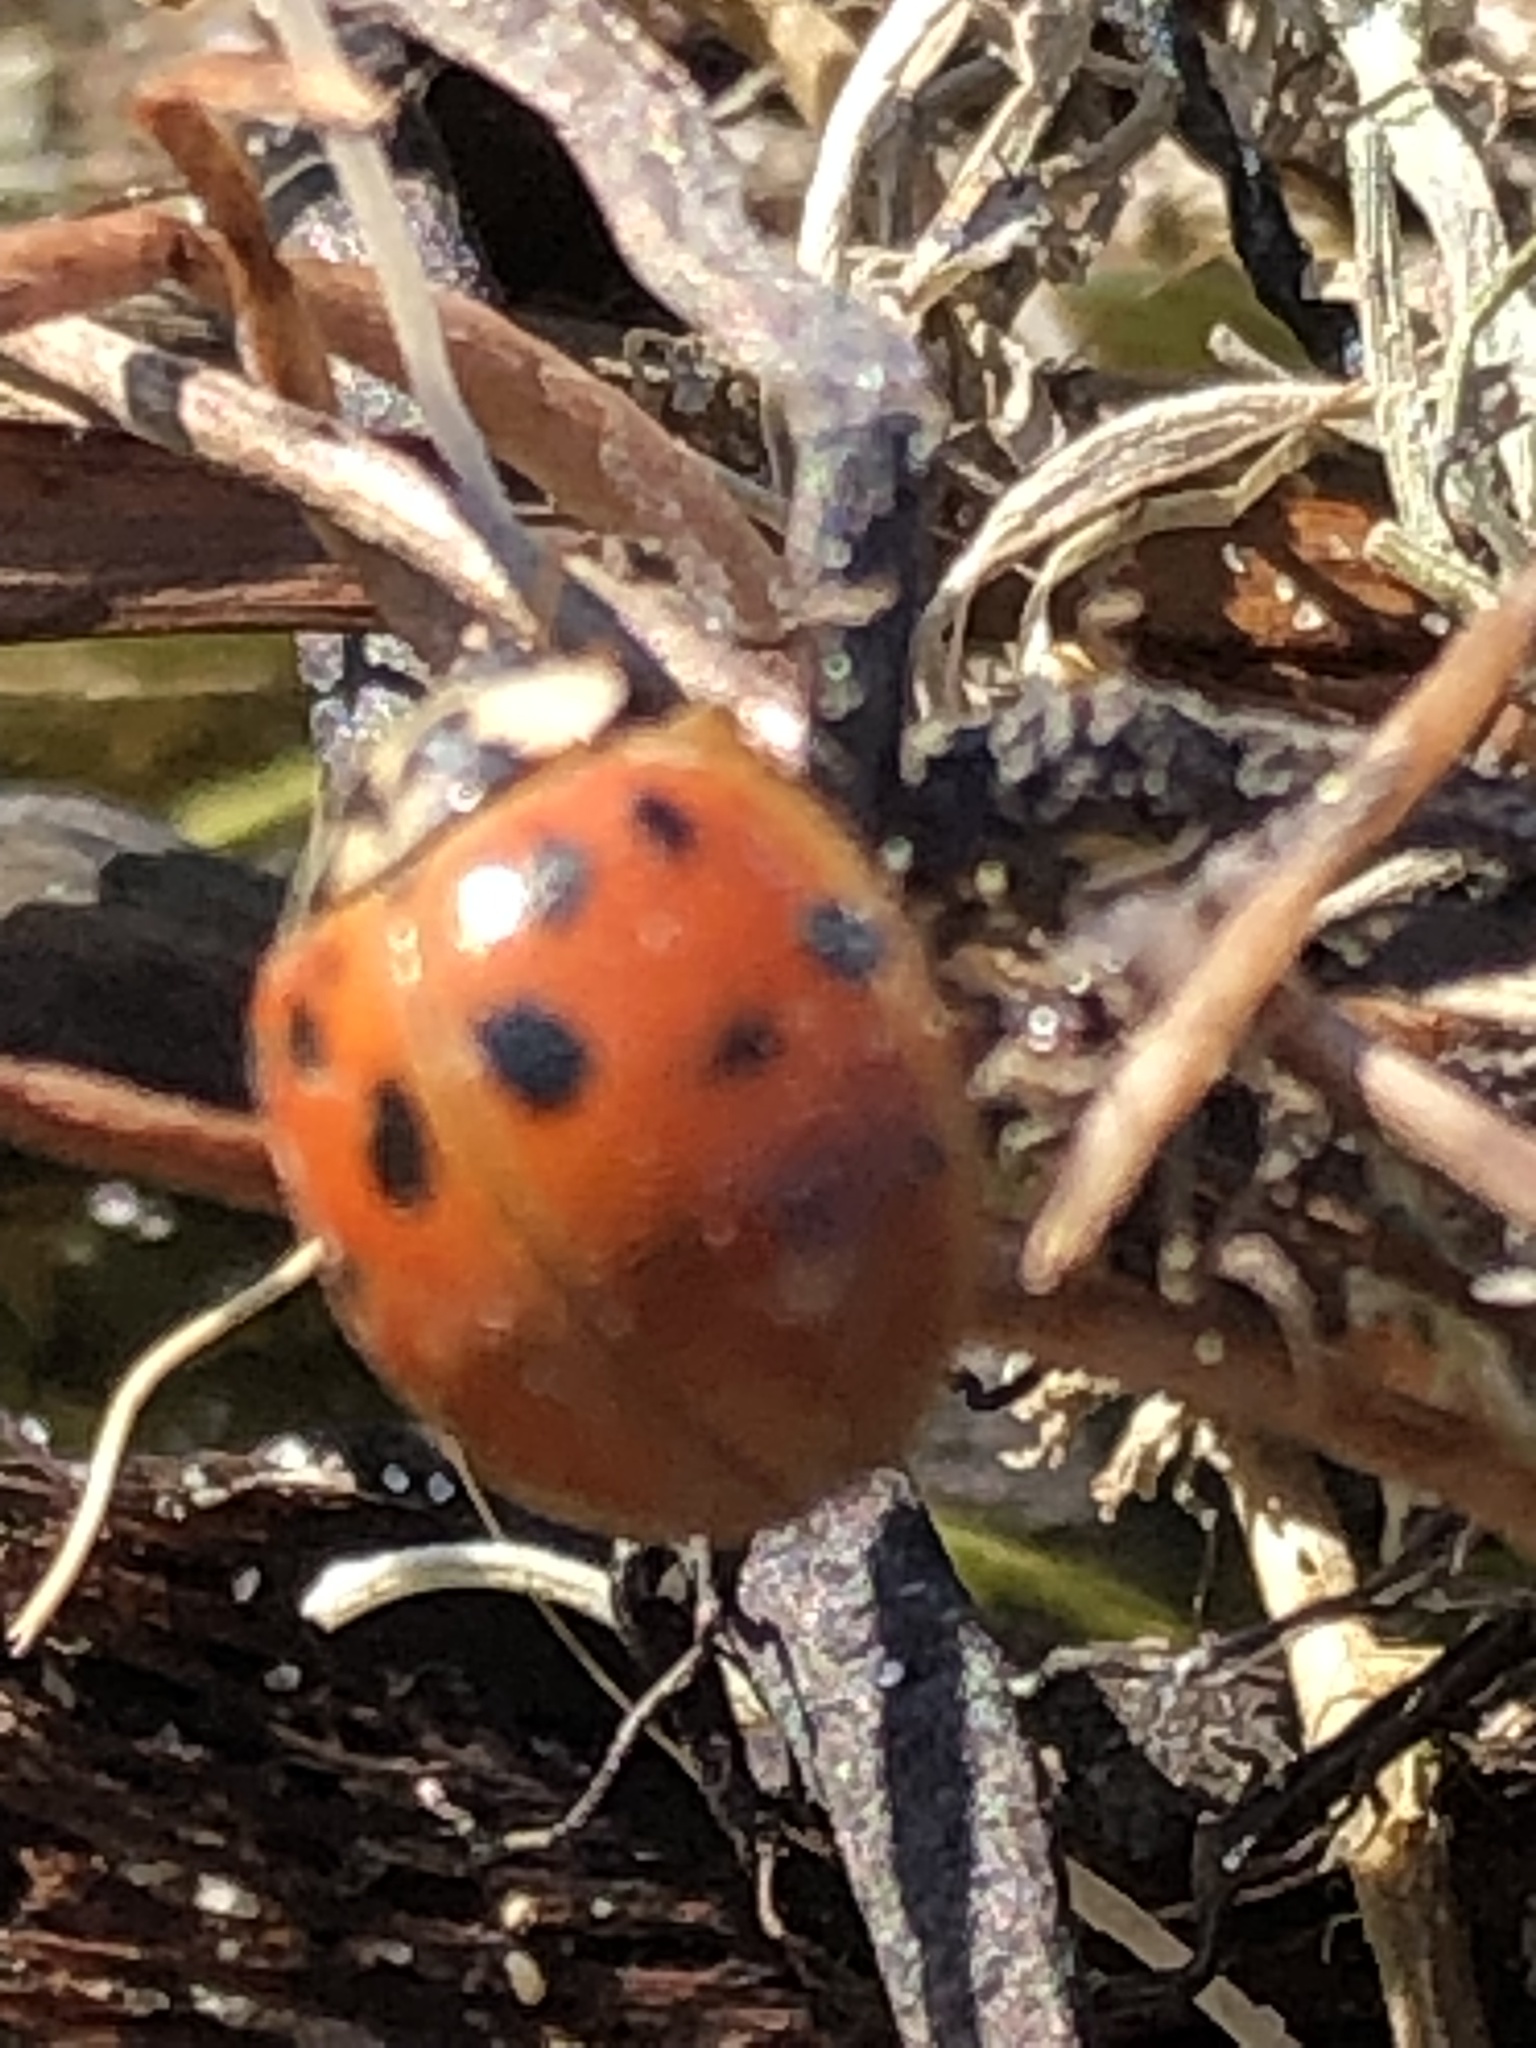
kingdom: Animalia
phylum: Arthropoda
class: Insecta
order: Coleoptera
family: Coccinellidae
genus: Harmonia
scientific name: Harmonia axyridis
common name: Harlequin ladybird
